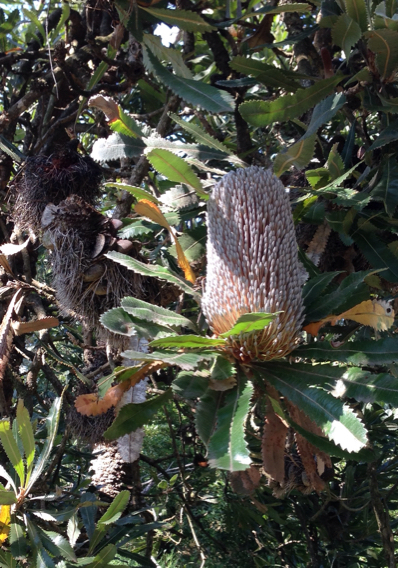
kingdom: Plantae
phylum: Tracheophyta
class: Magnoliopsida
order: Proteales
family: Proteaceae
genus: Banksia
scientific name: Banksia serrata
